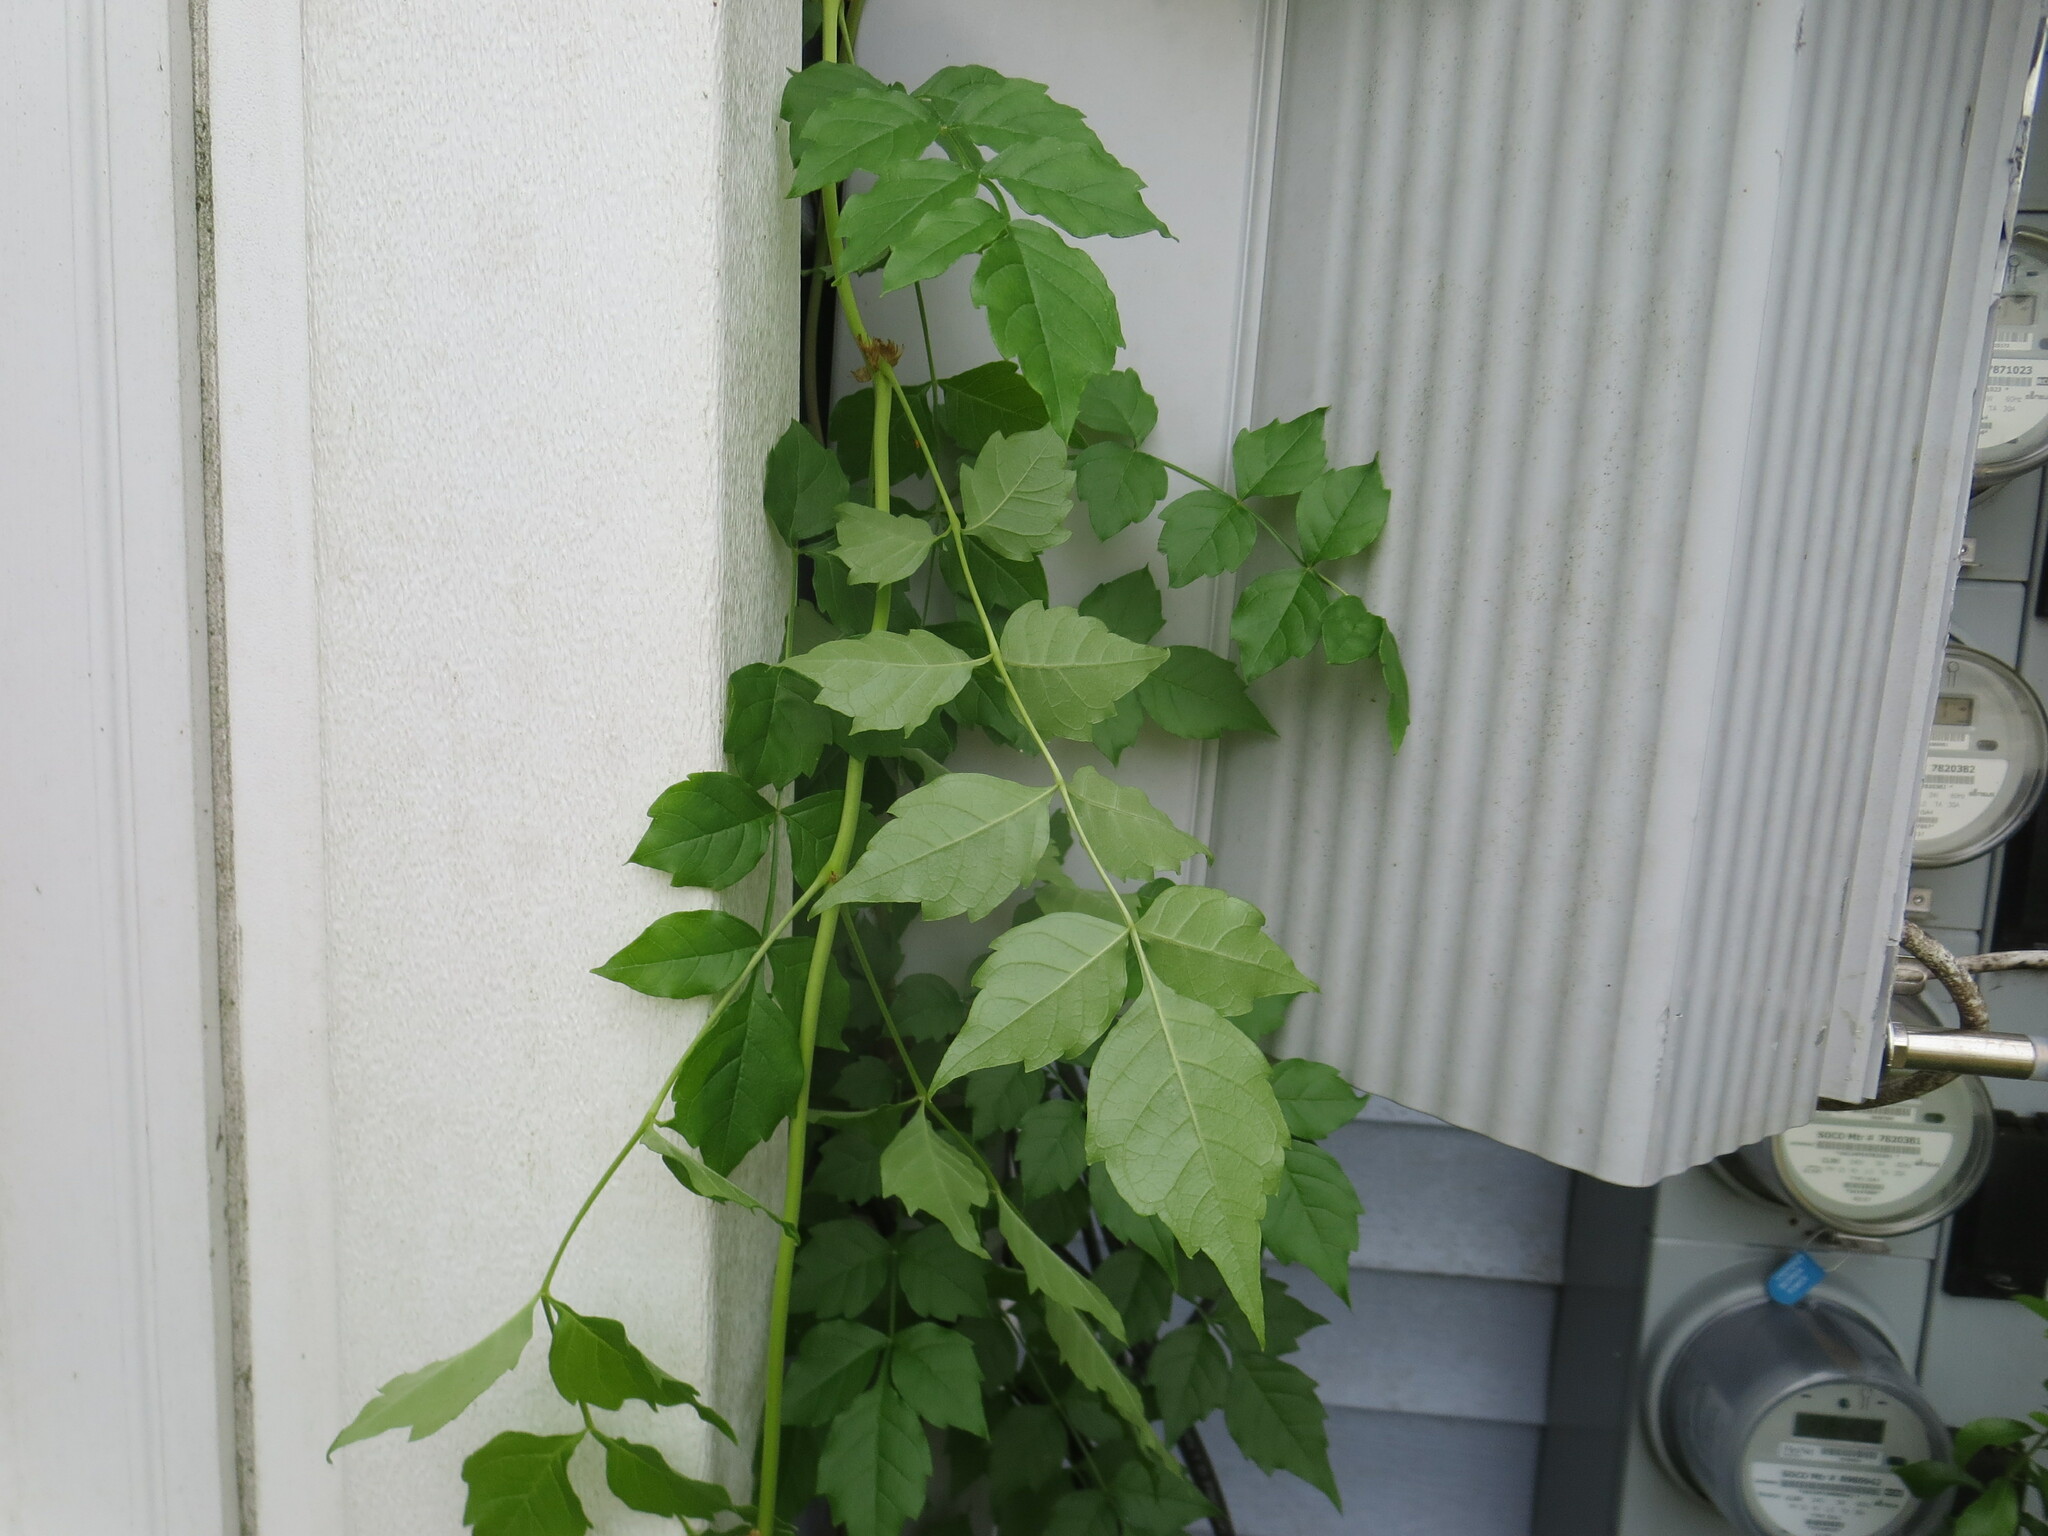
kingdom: Plantae
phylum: Tracheophyta
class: Magnoliopsida
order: Lamiales
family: Bignoniaceae
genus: Campsis
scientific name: Campsis radicans
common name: Trumpet-creeper
